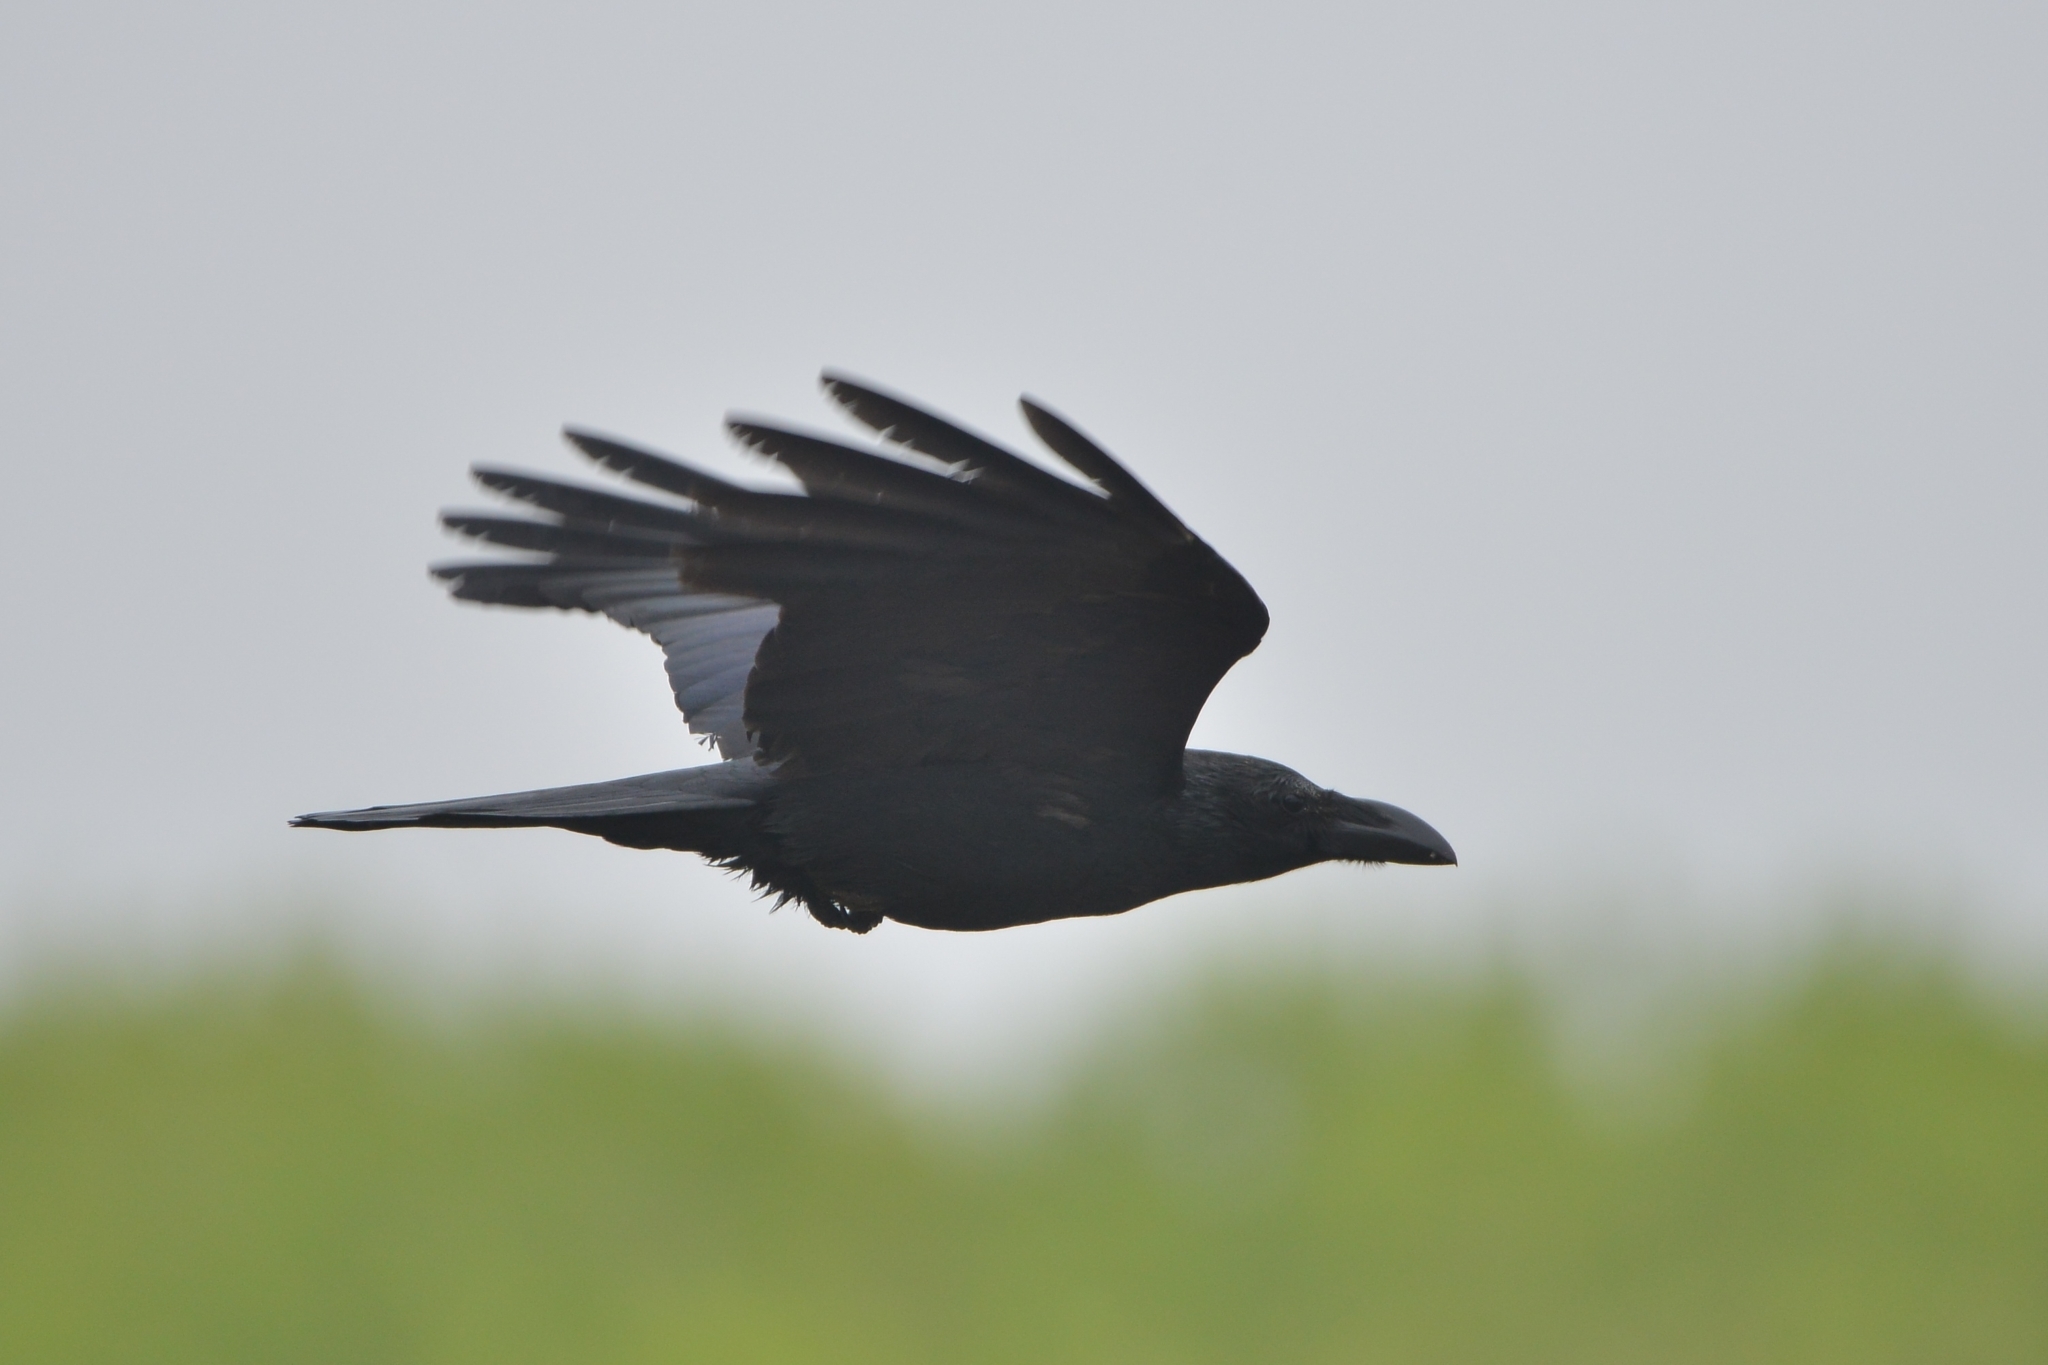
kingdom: Animalia
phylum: Chordata
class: Aves
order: Passeriformes
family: Corvidae
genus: Corvus
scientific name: Corvus macrorhynchos
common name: Large-billed crow
